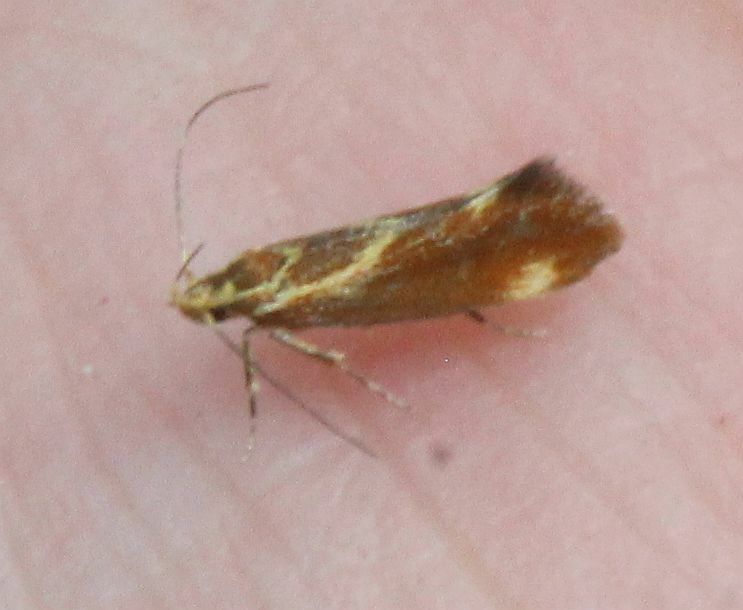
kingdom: Animalia
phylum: Arthropoda
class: Insecta
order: Lepidoptera
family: Oecophoridae
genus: Borkhausenia
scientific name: Borkhausenia italica
